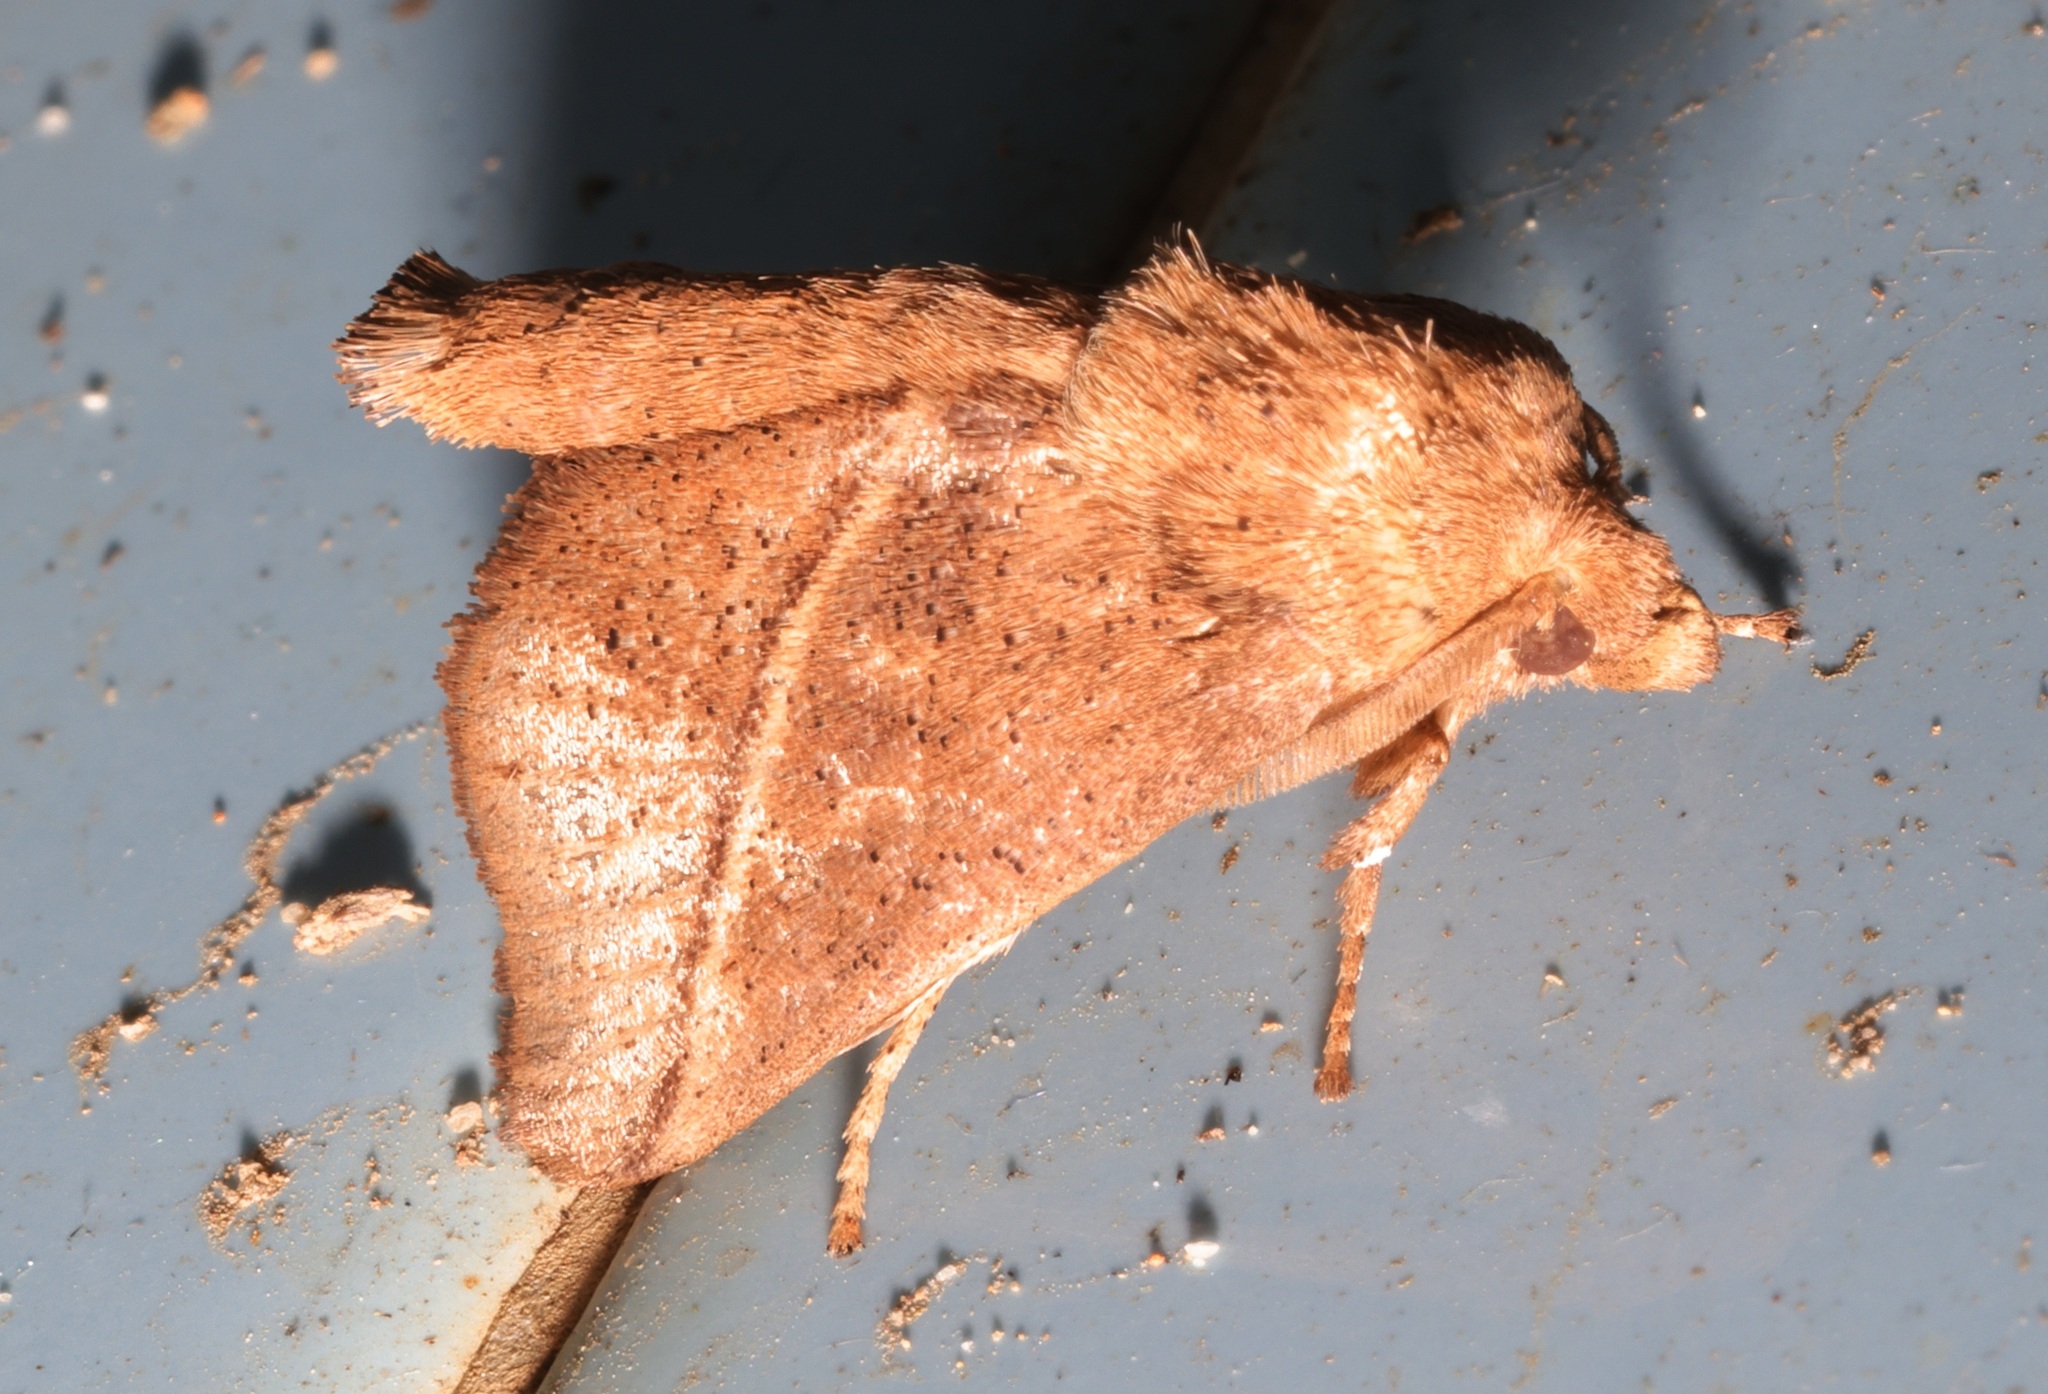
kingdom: Animalia
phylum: Arthropoda
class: Insecta
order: Lepidoptera
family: Limacodidae
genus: Quasithosea
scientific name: Quasithosea obliquistriga
